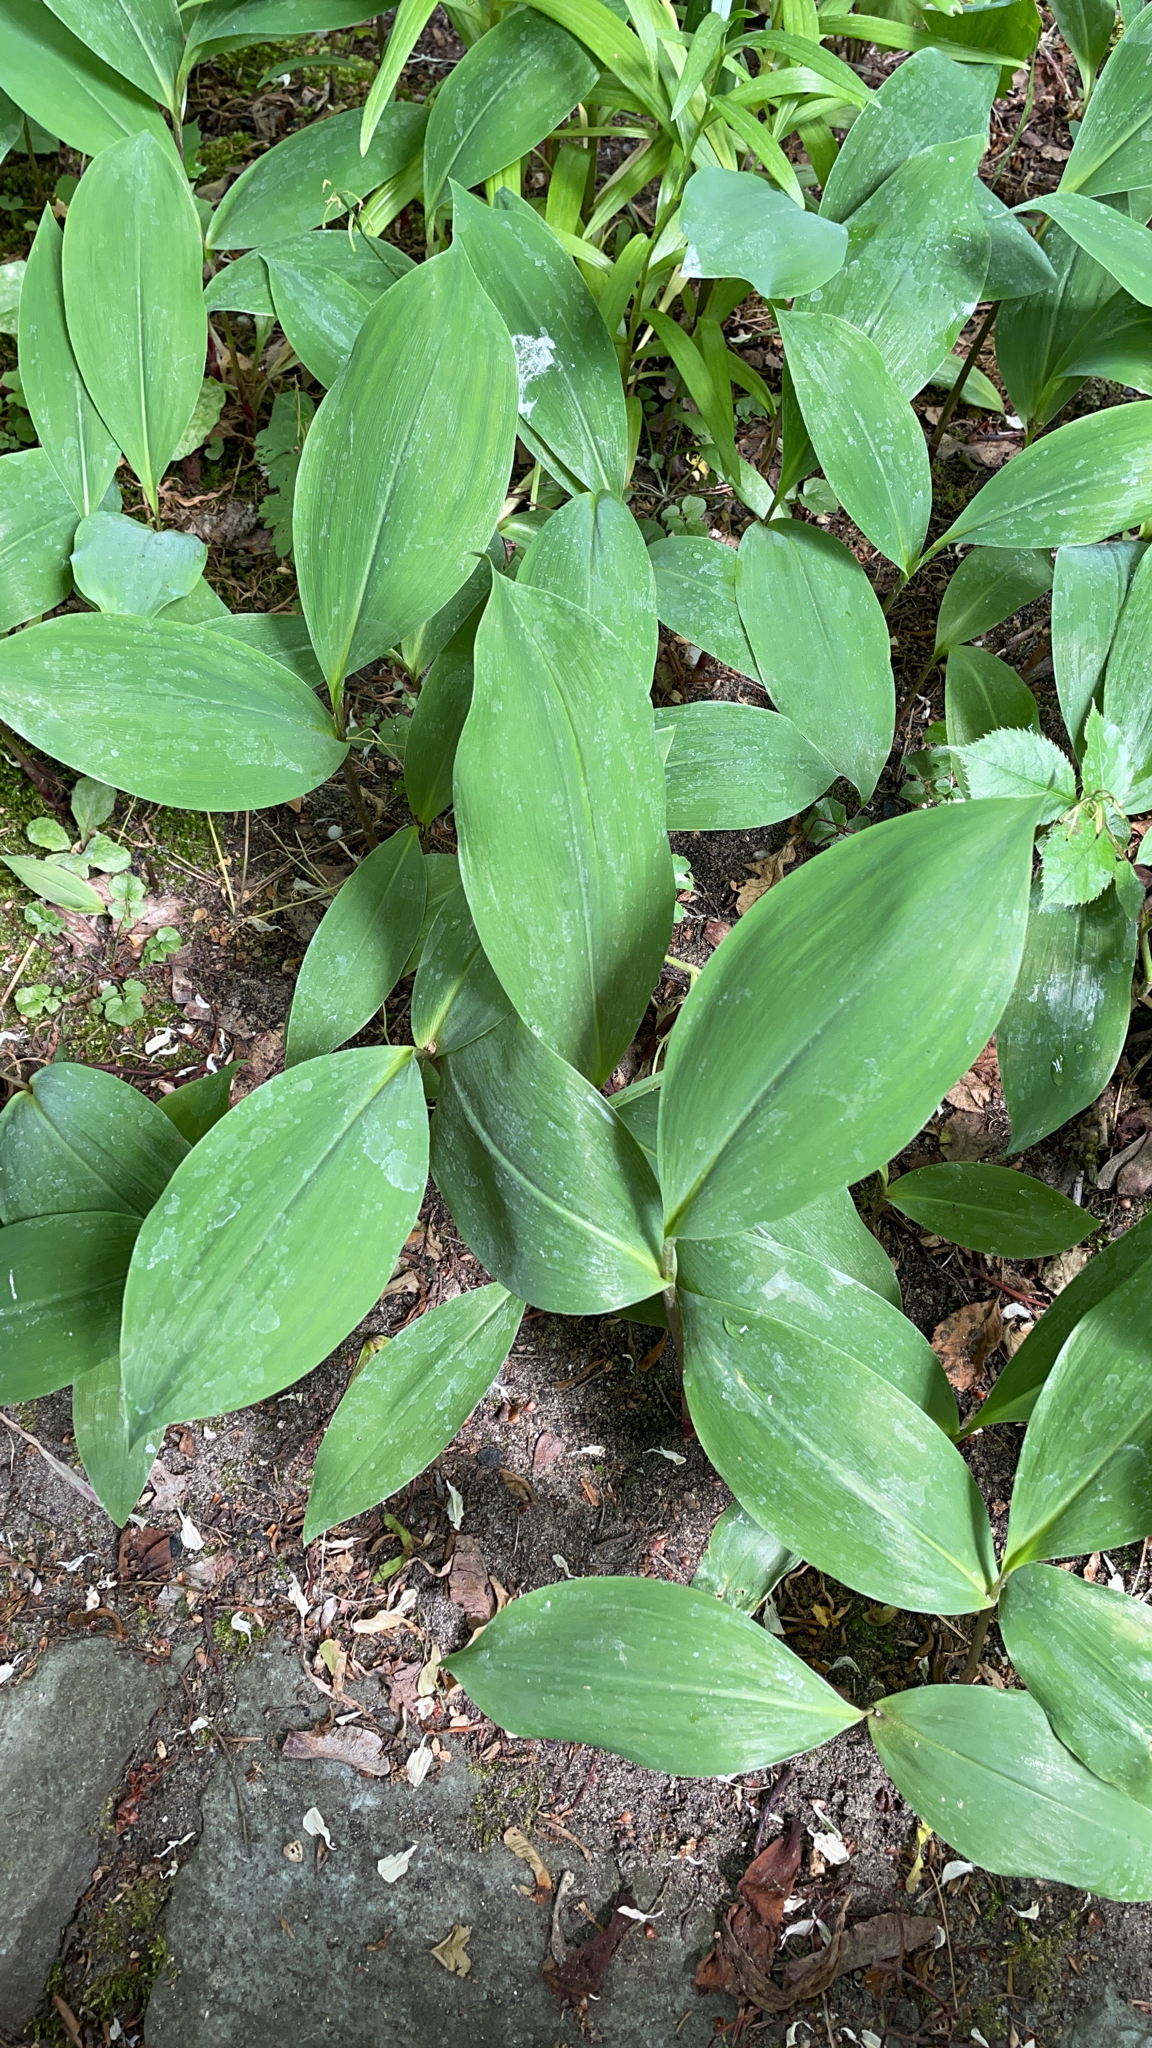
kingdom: Plantae
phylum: Tracheophyta
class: Liliopsida
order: Asparagales
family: Asparagaceae
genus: Convallaria
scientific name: Convallaria majalis
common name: Lily-of-the-valley
